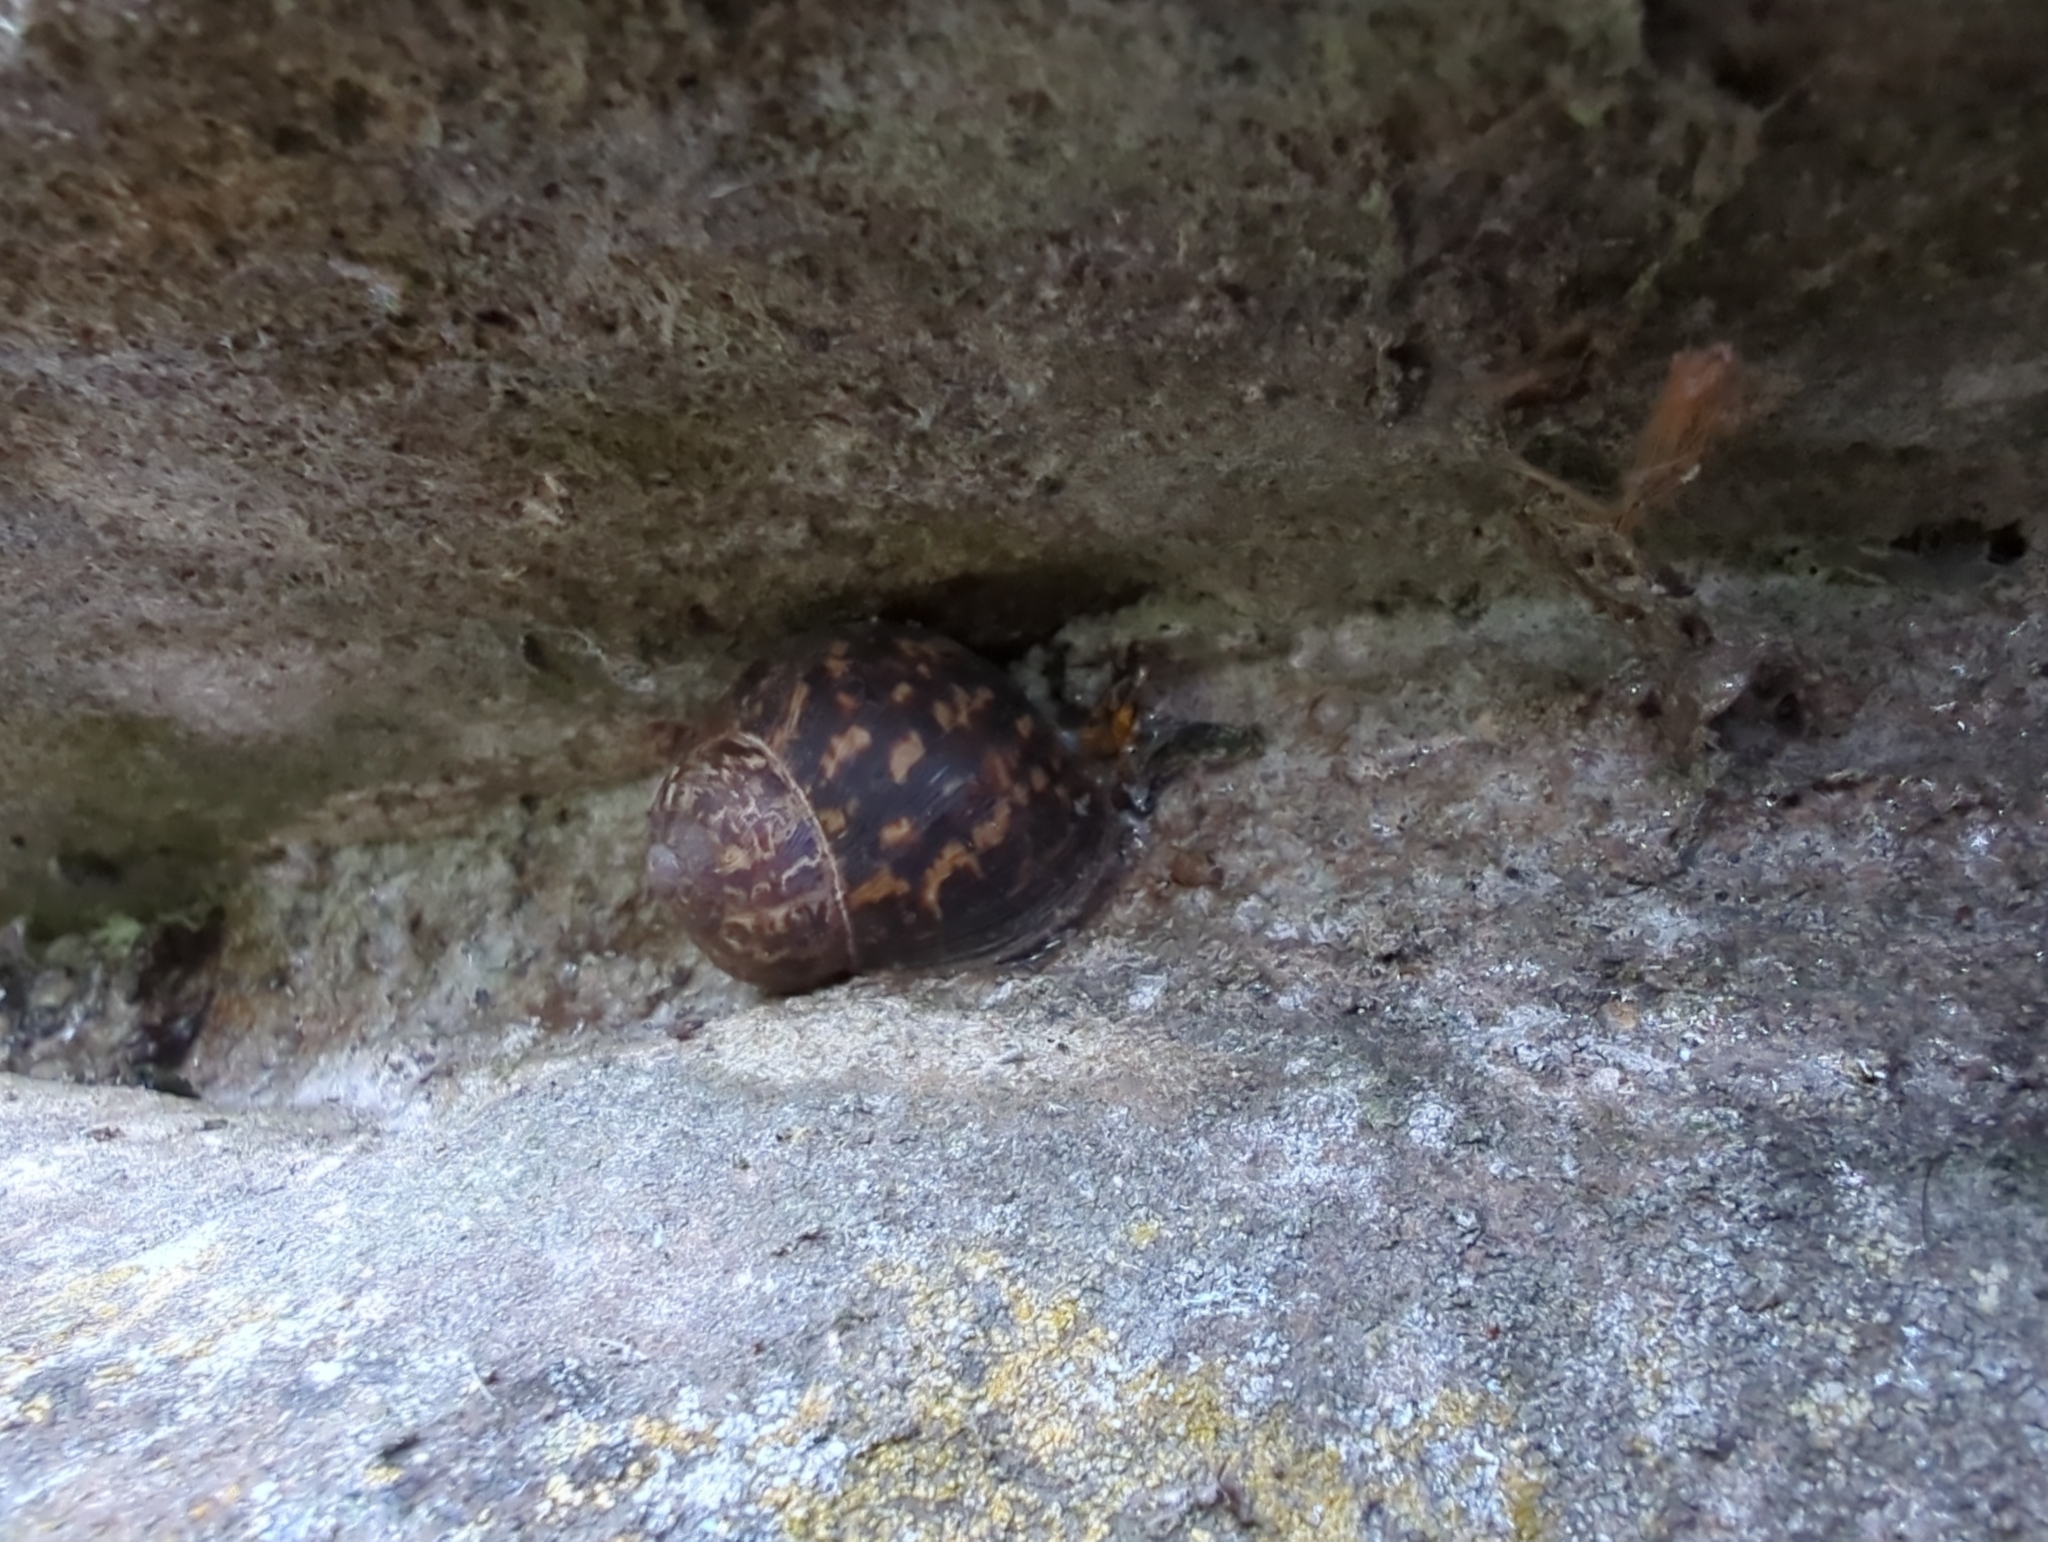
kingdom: Animalia
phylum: Mollusca
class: Gastropoda
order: Stylommatophora
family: Helicidae
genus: Cornu
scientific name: Cornu aspersum
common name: Brown garden snail
